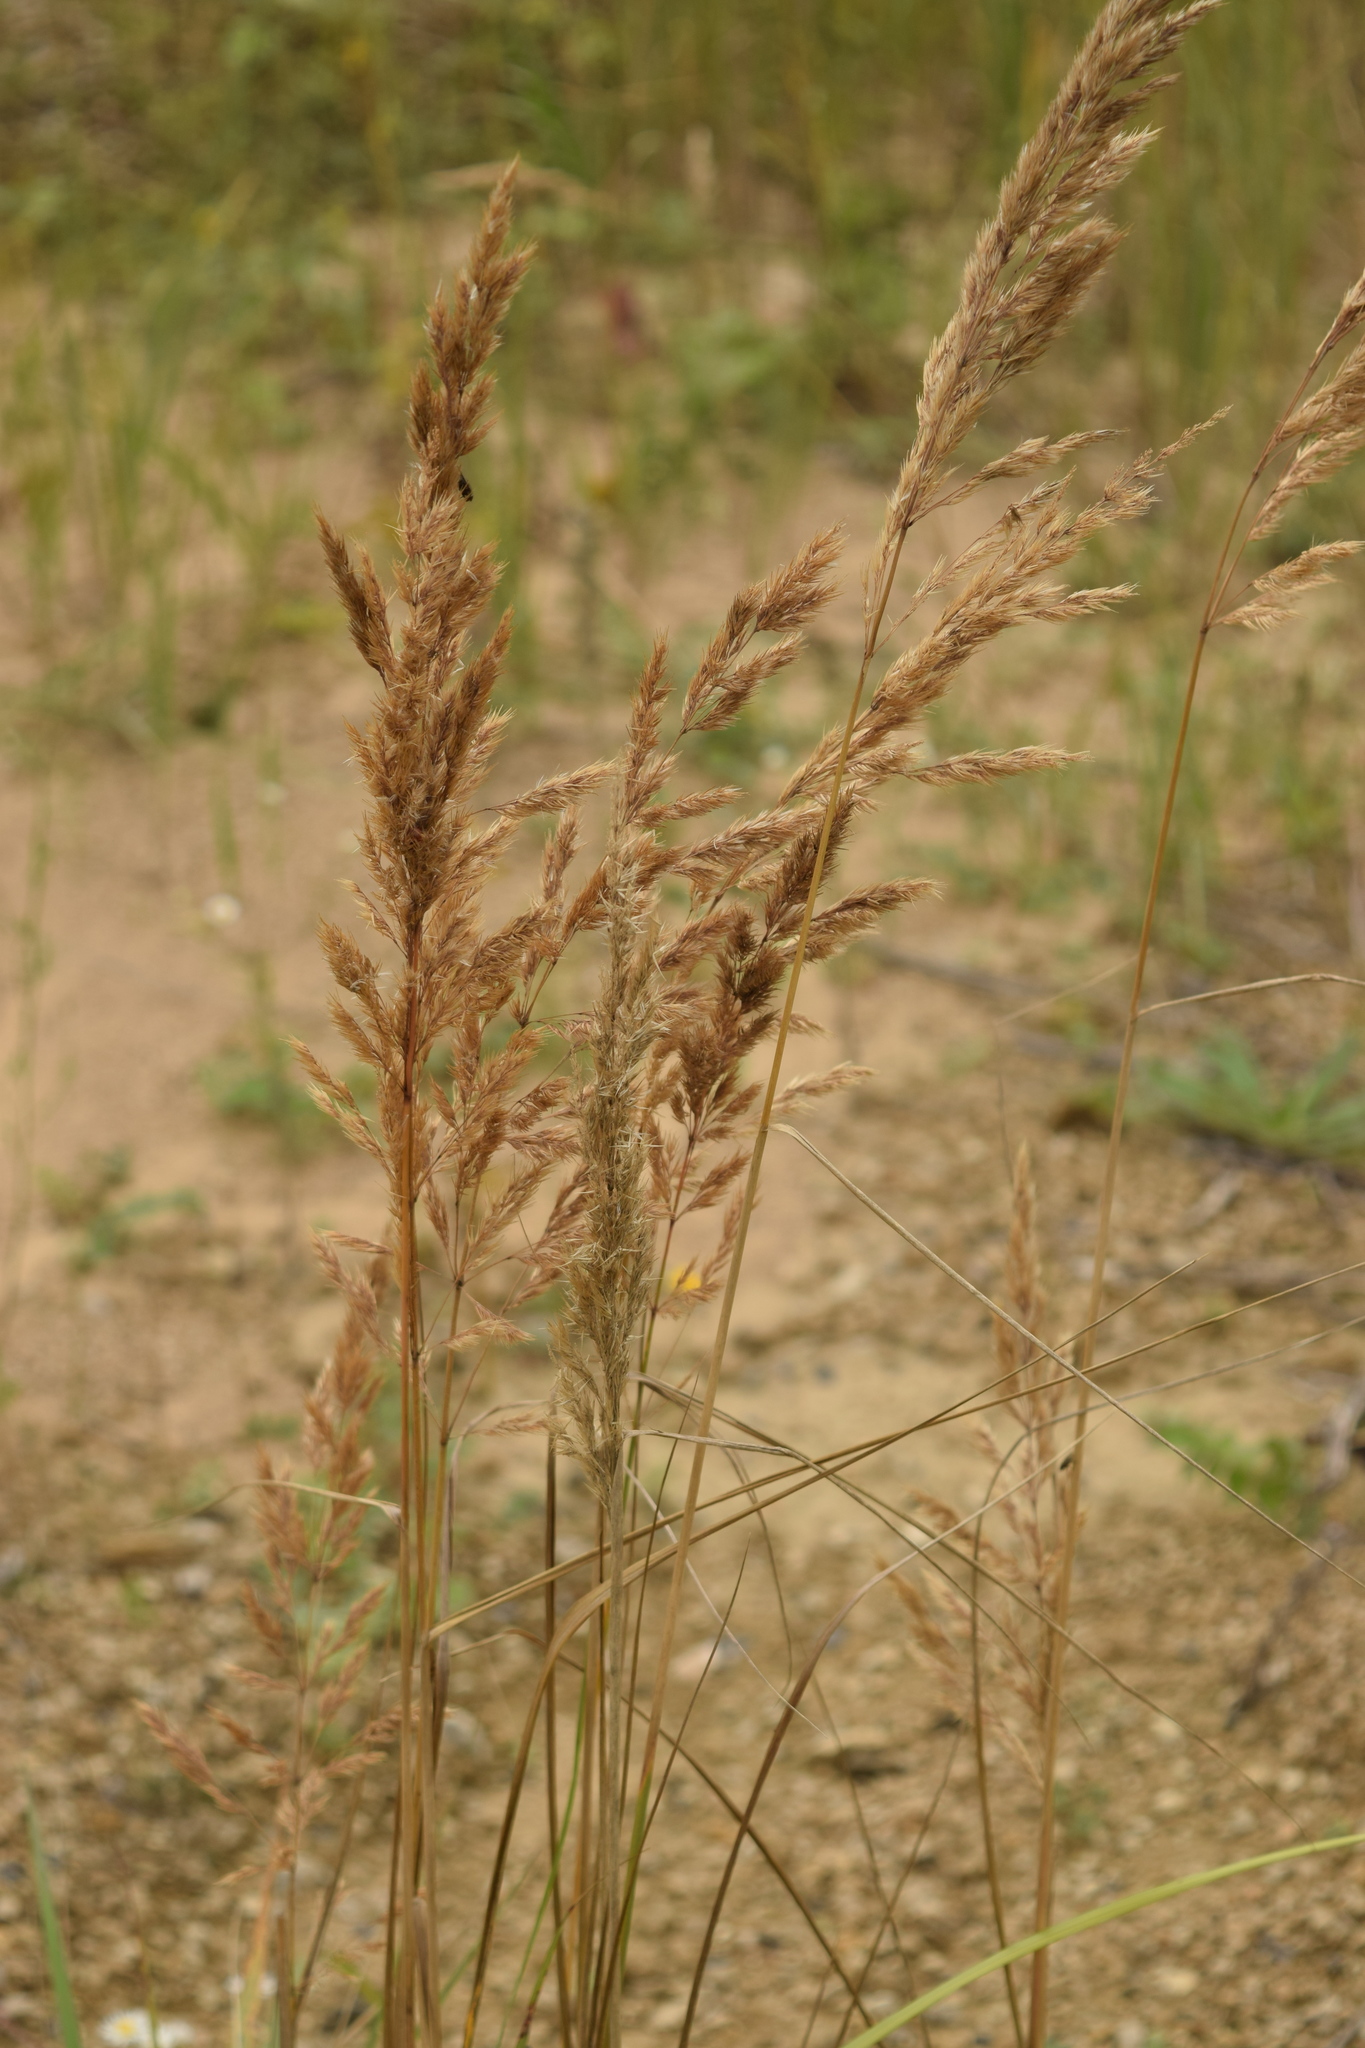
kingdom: Plantae
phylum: Tracheophyta
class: Liliopsida
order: Poales
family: Poaceae
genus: Calamagrostis
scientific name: Calamagrostis epigejos
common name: Wood small-reed
